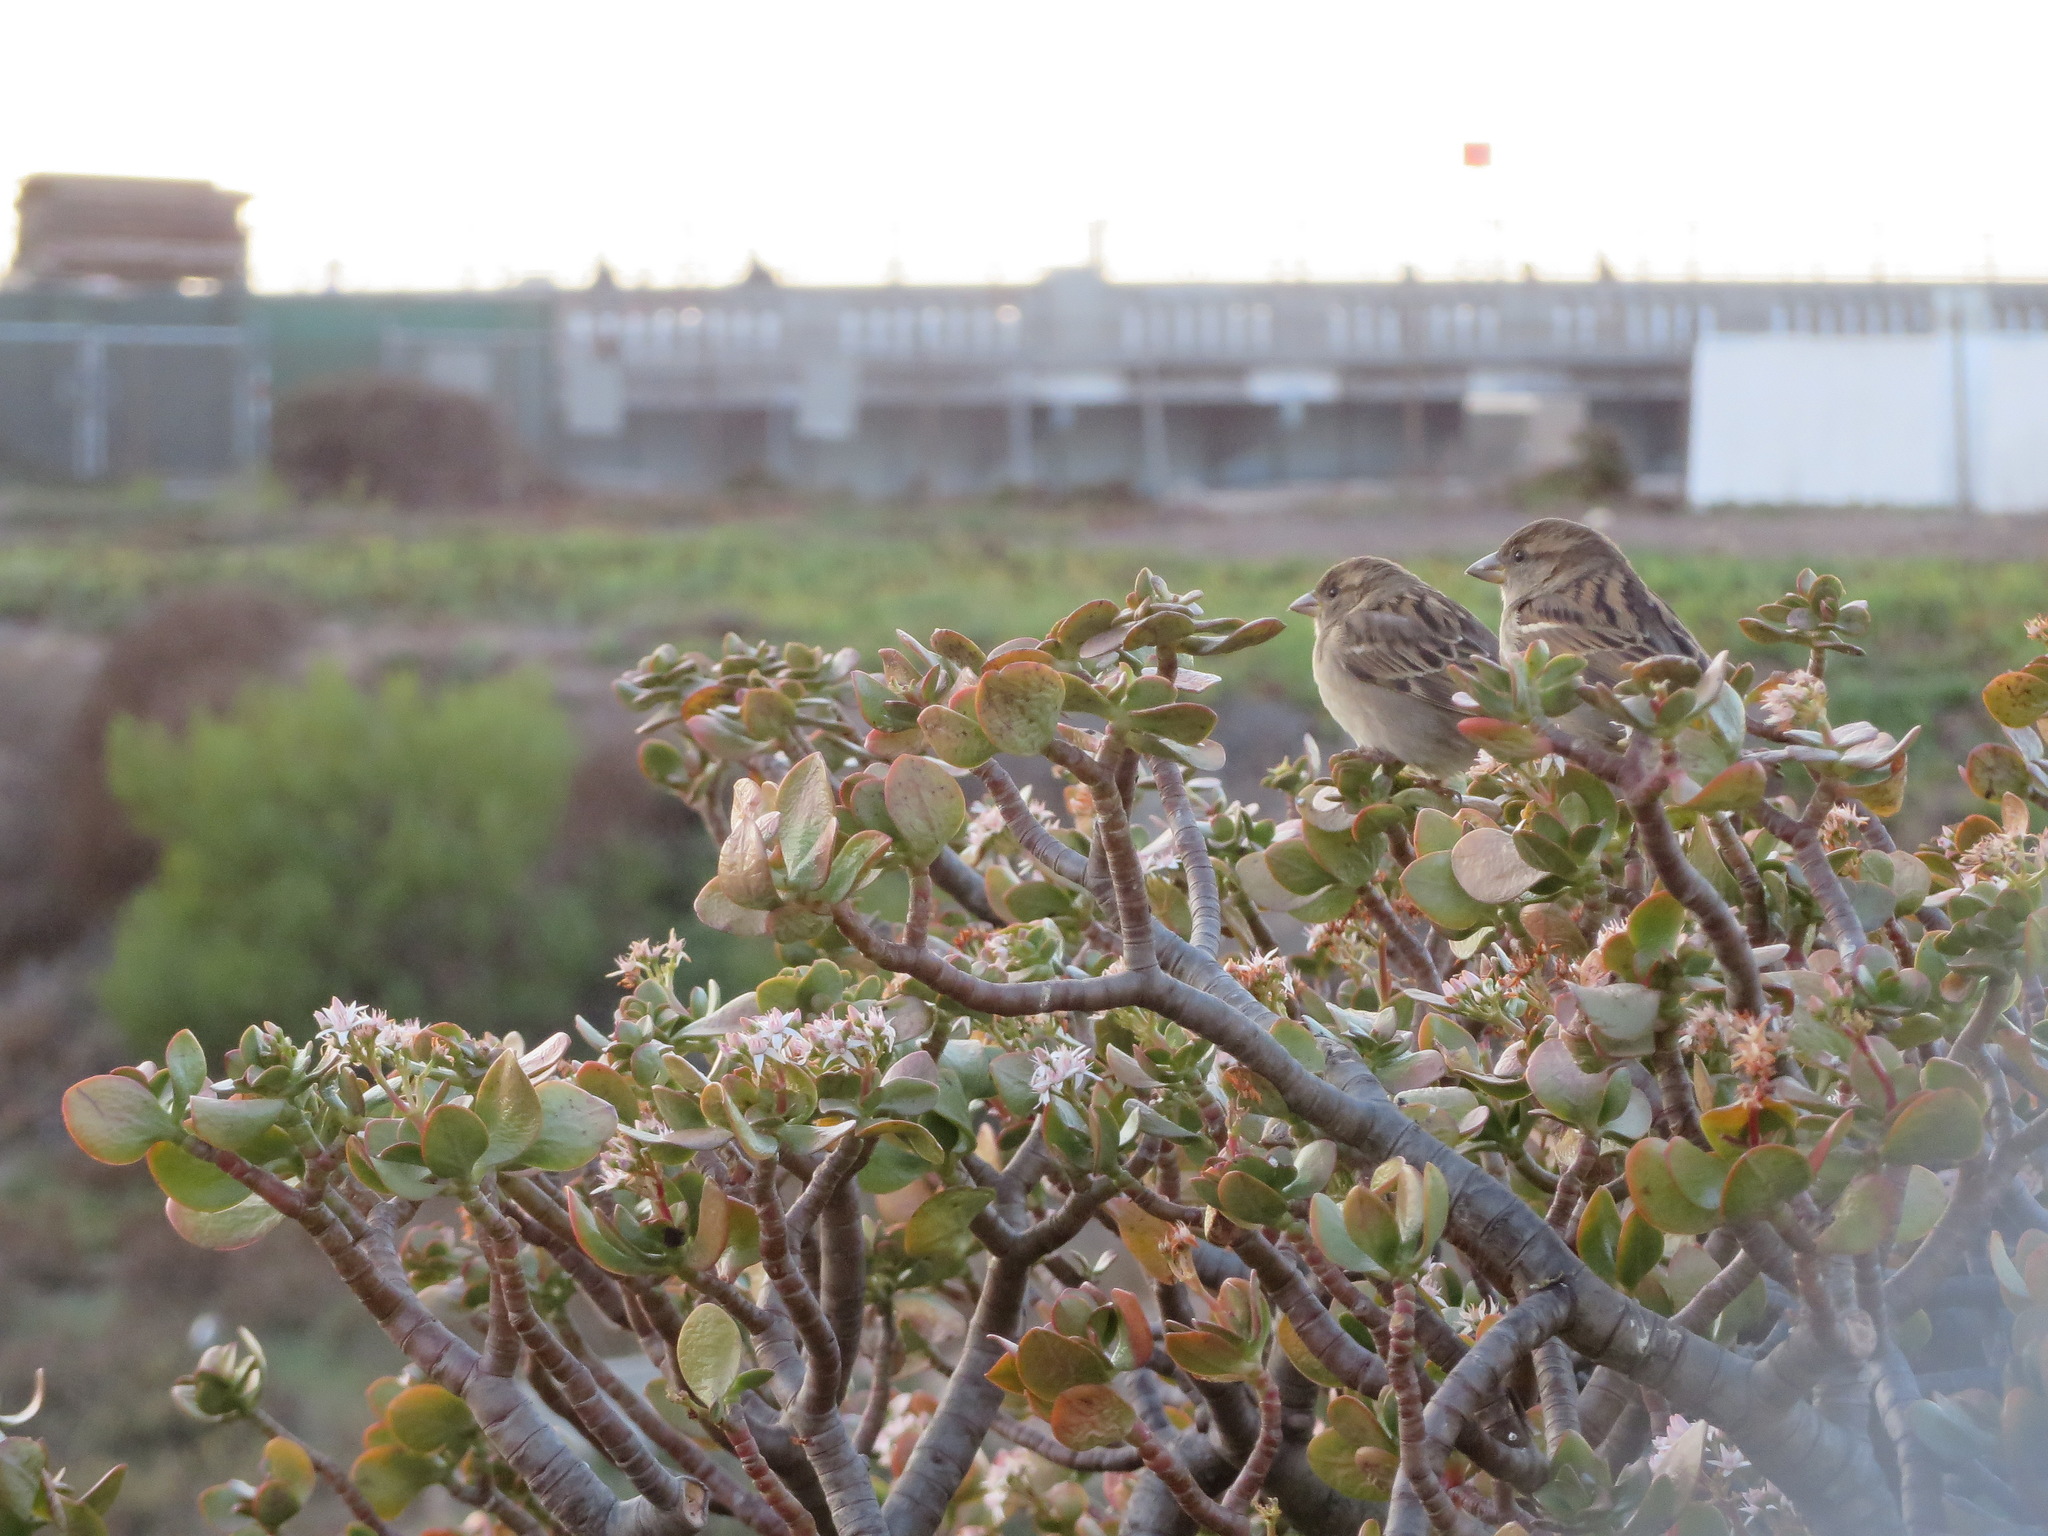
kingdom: Animalia
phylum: Chordata
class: Aves
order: Passeriformes
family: Passeridae
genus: Passer
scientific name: Passer domesticus
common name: House sparrow
